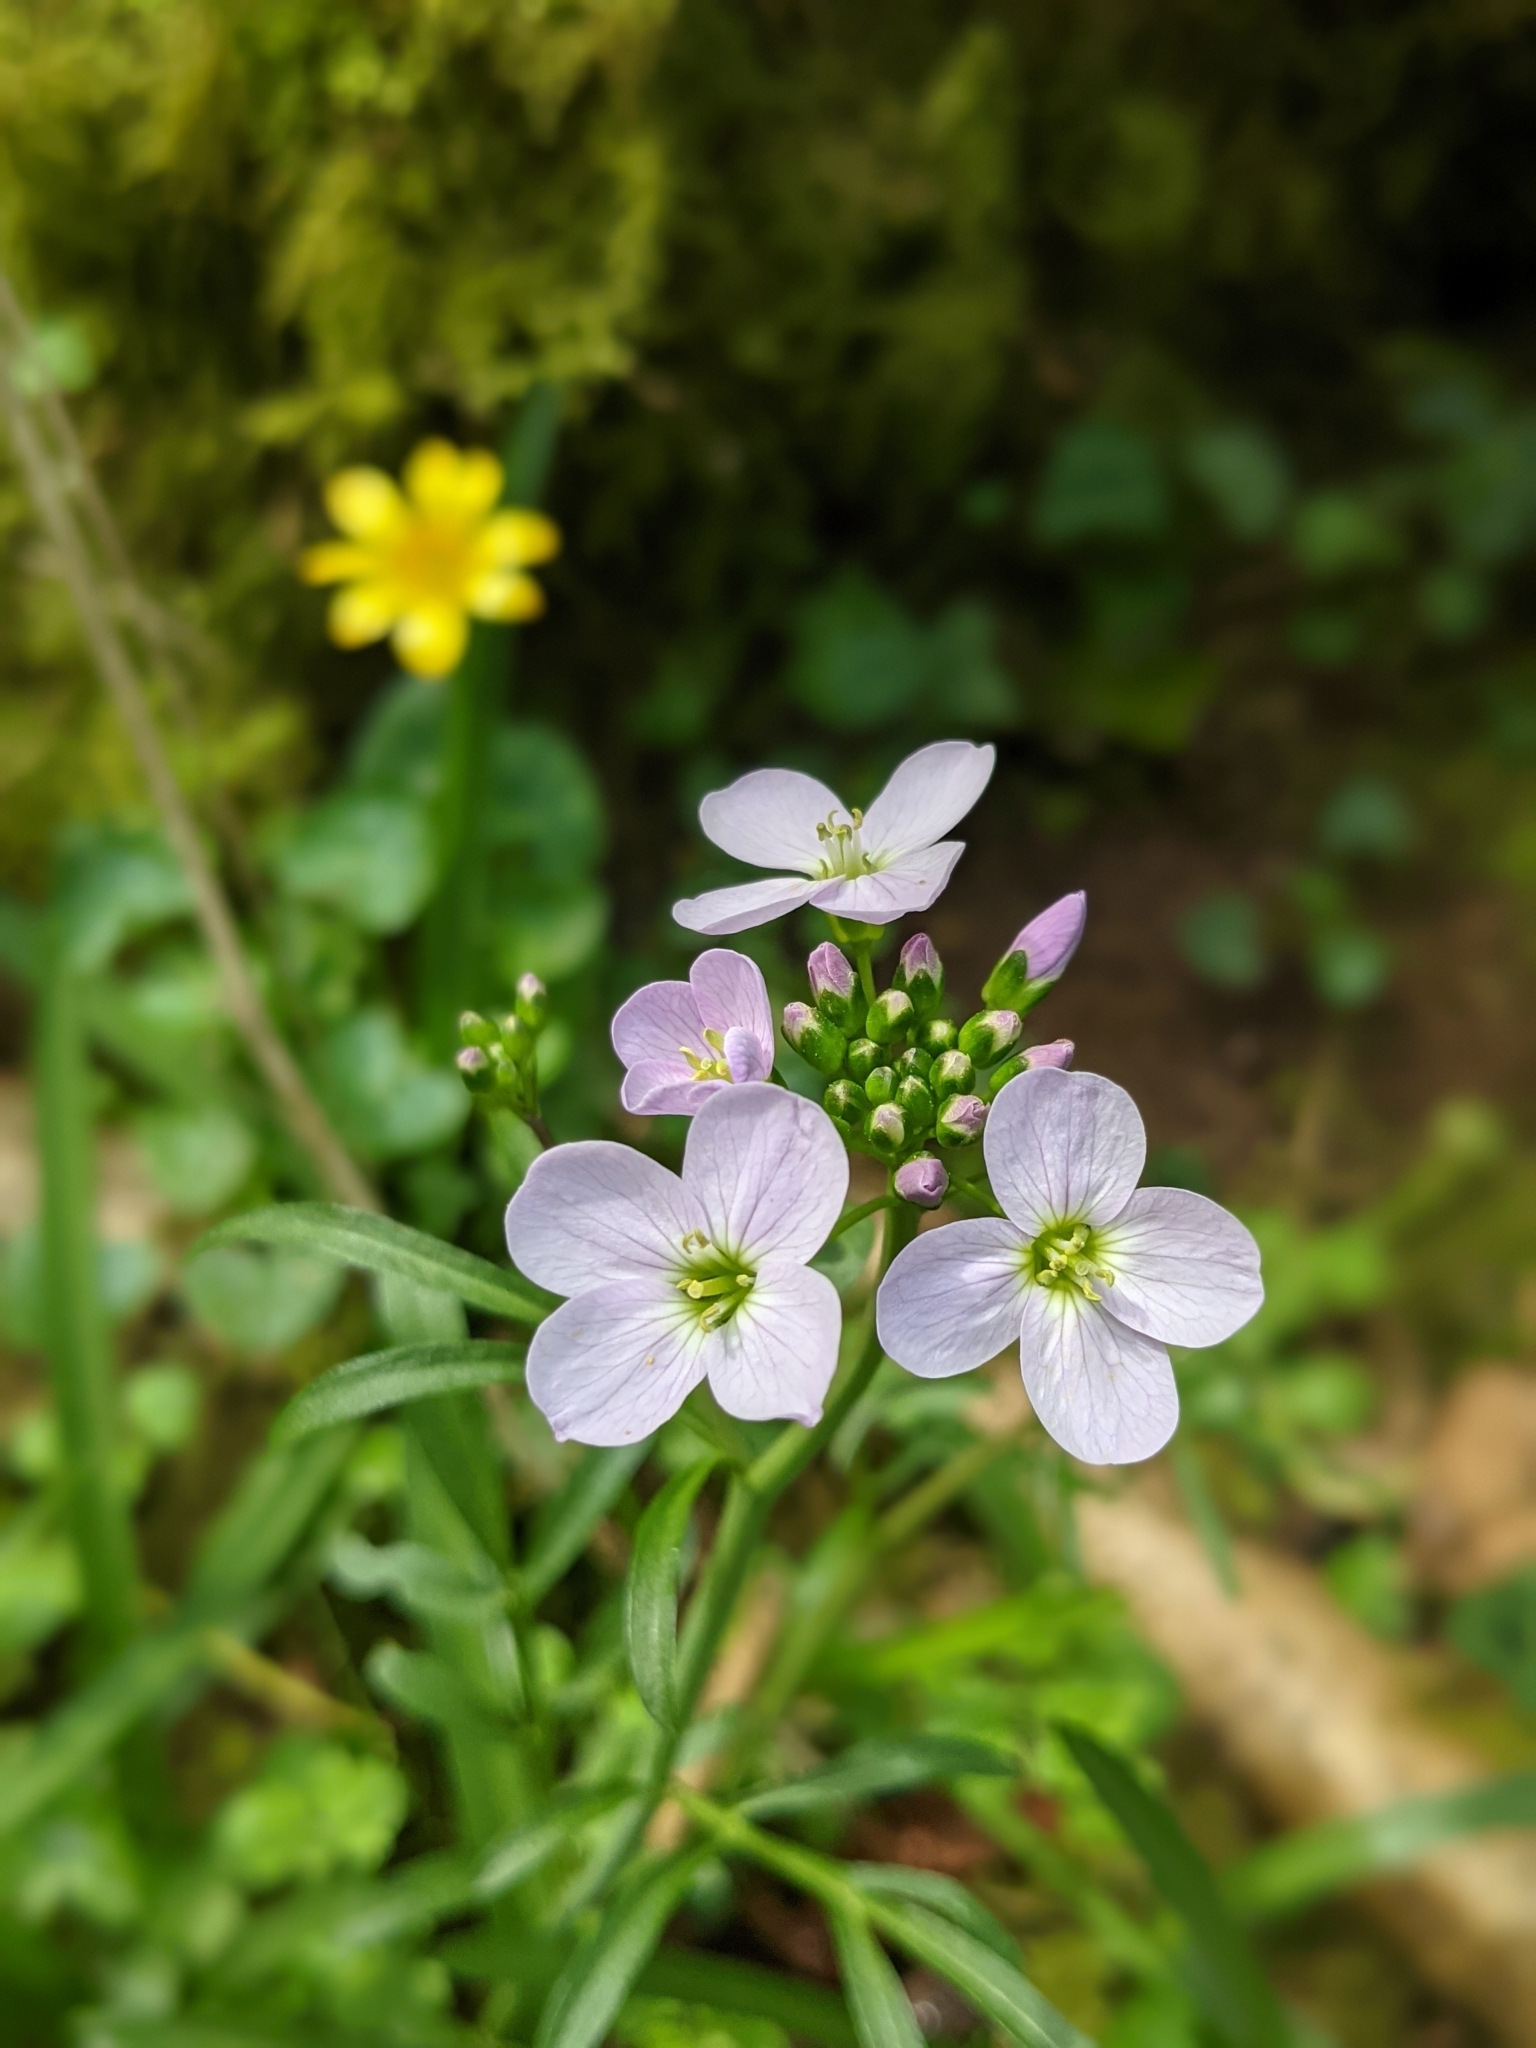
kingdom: Plantae
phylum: Tracheophyta
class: Magnoliopsida
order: Brassicales
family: Brassicaceae
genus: Cardamine
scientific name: Cardamine pratensis
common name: Cuckoo flower
